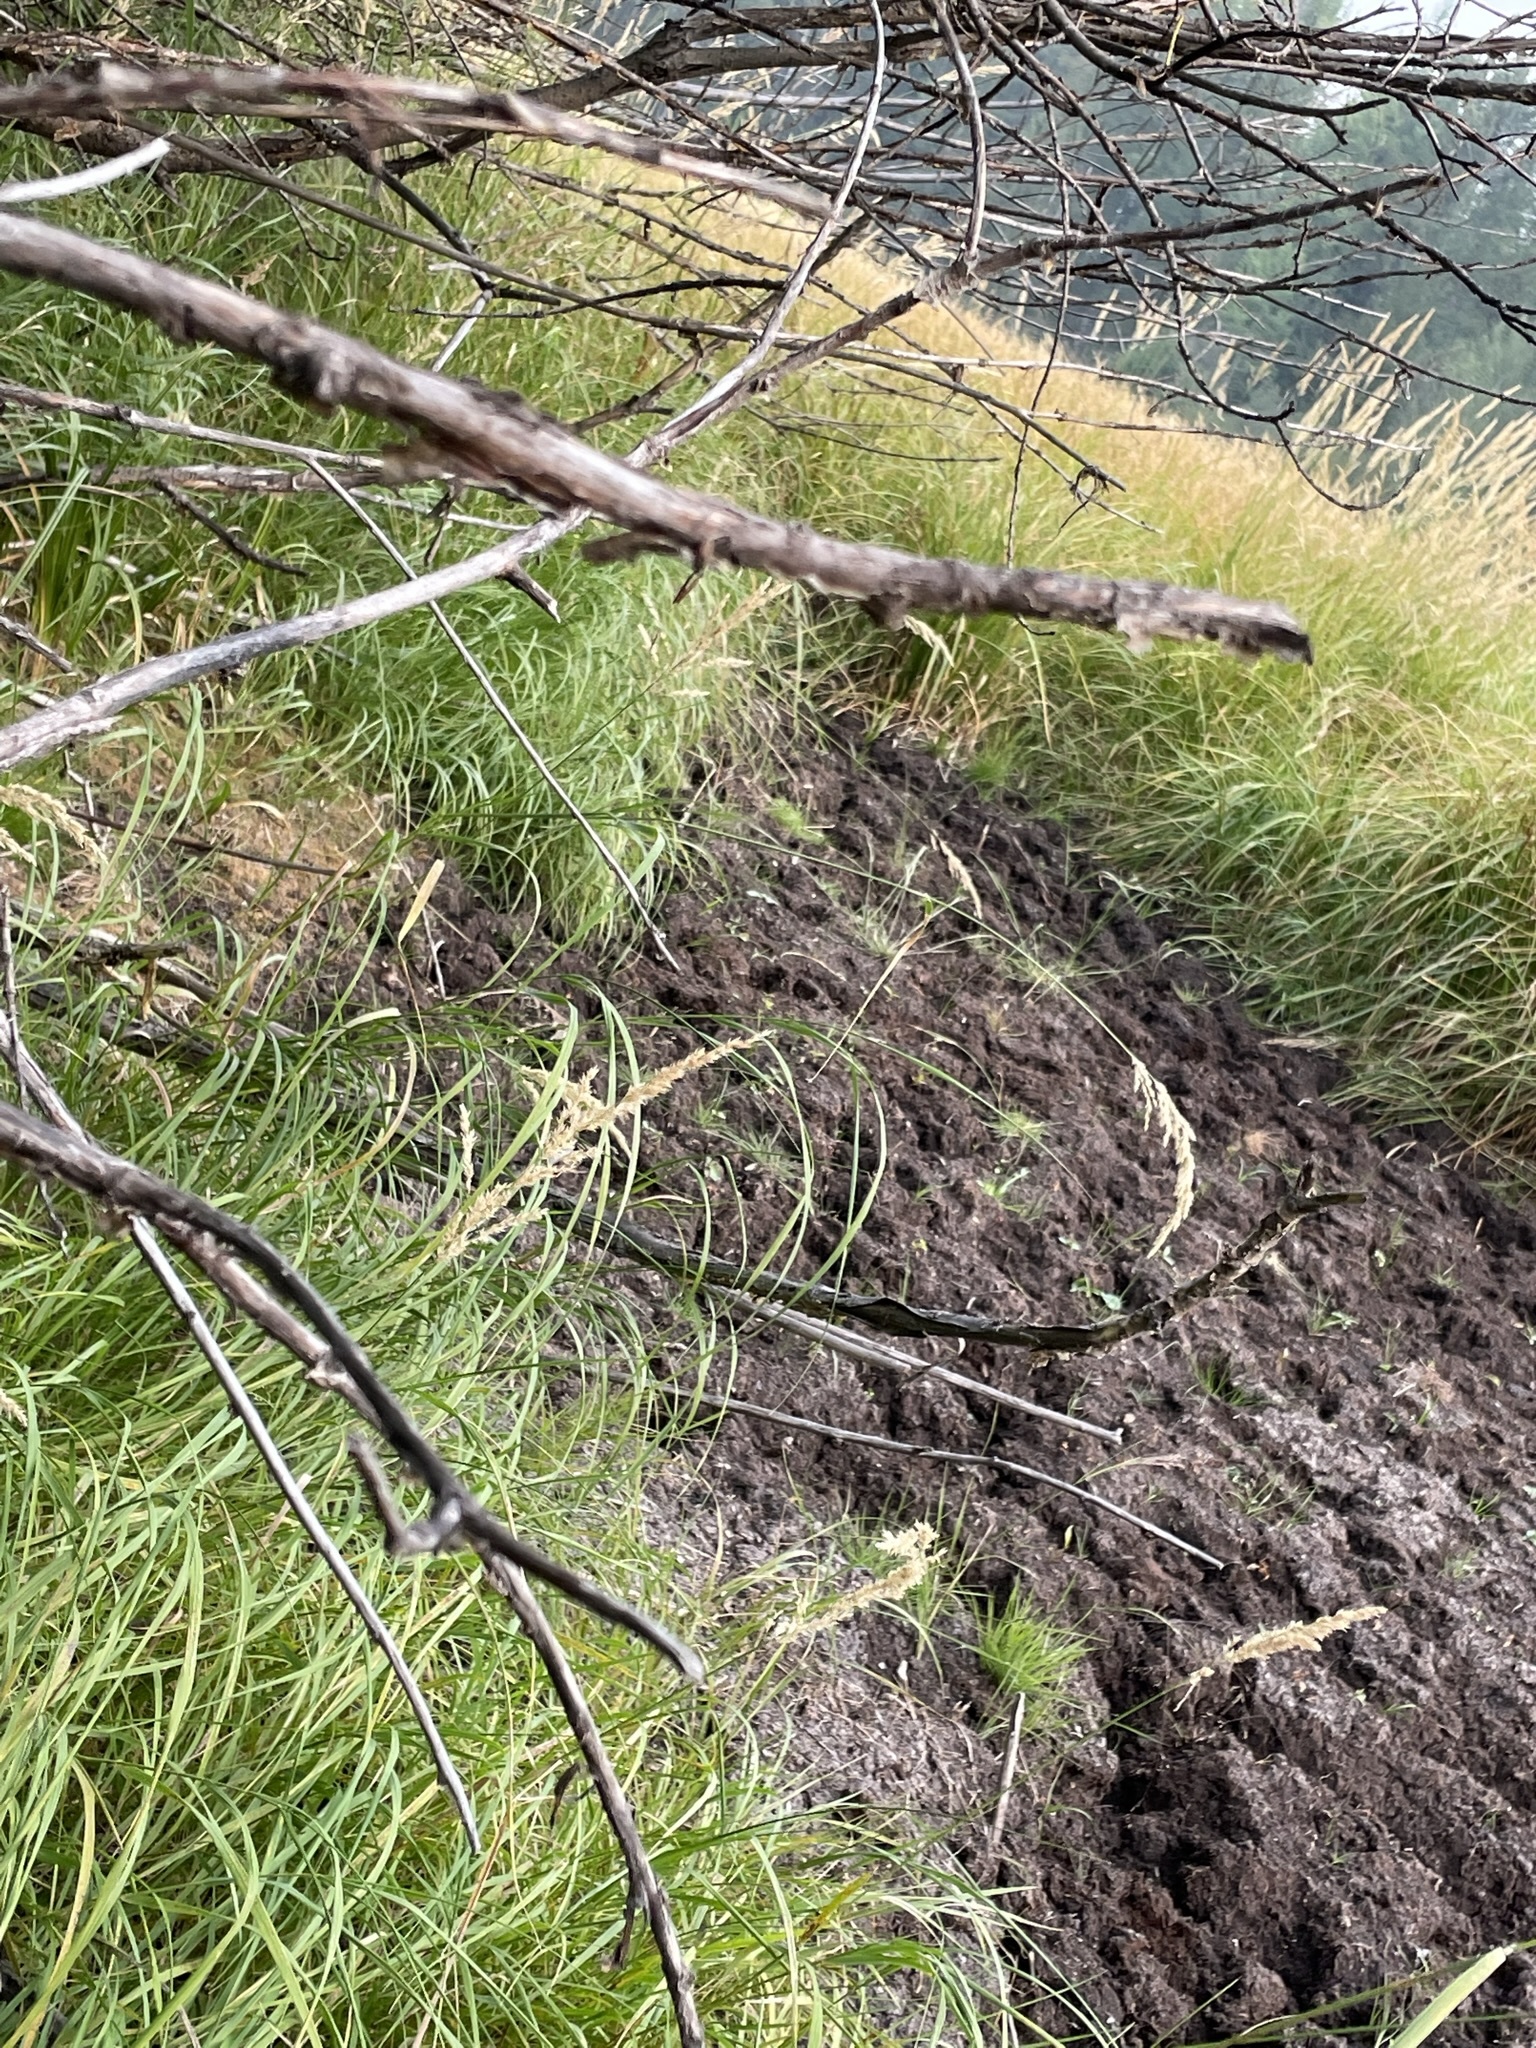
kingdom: Plantae
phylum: Tracheophyta
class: Liliopsida
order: Poales
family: Poaceae
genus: Calamagrostis
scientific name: Calamagrostis canadensis
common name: Canada bluejoint
